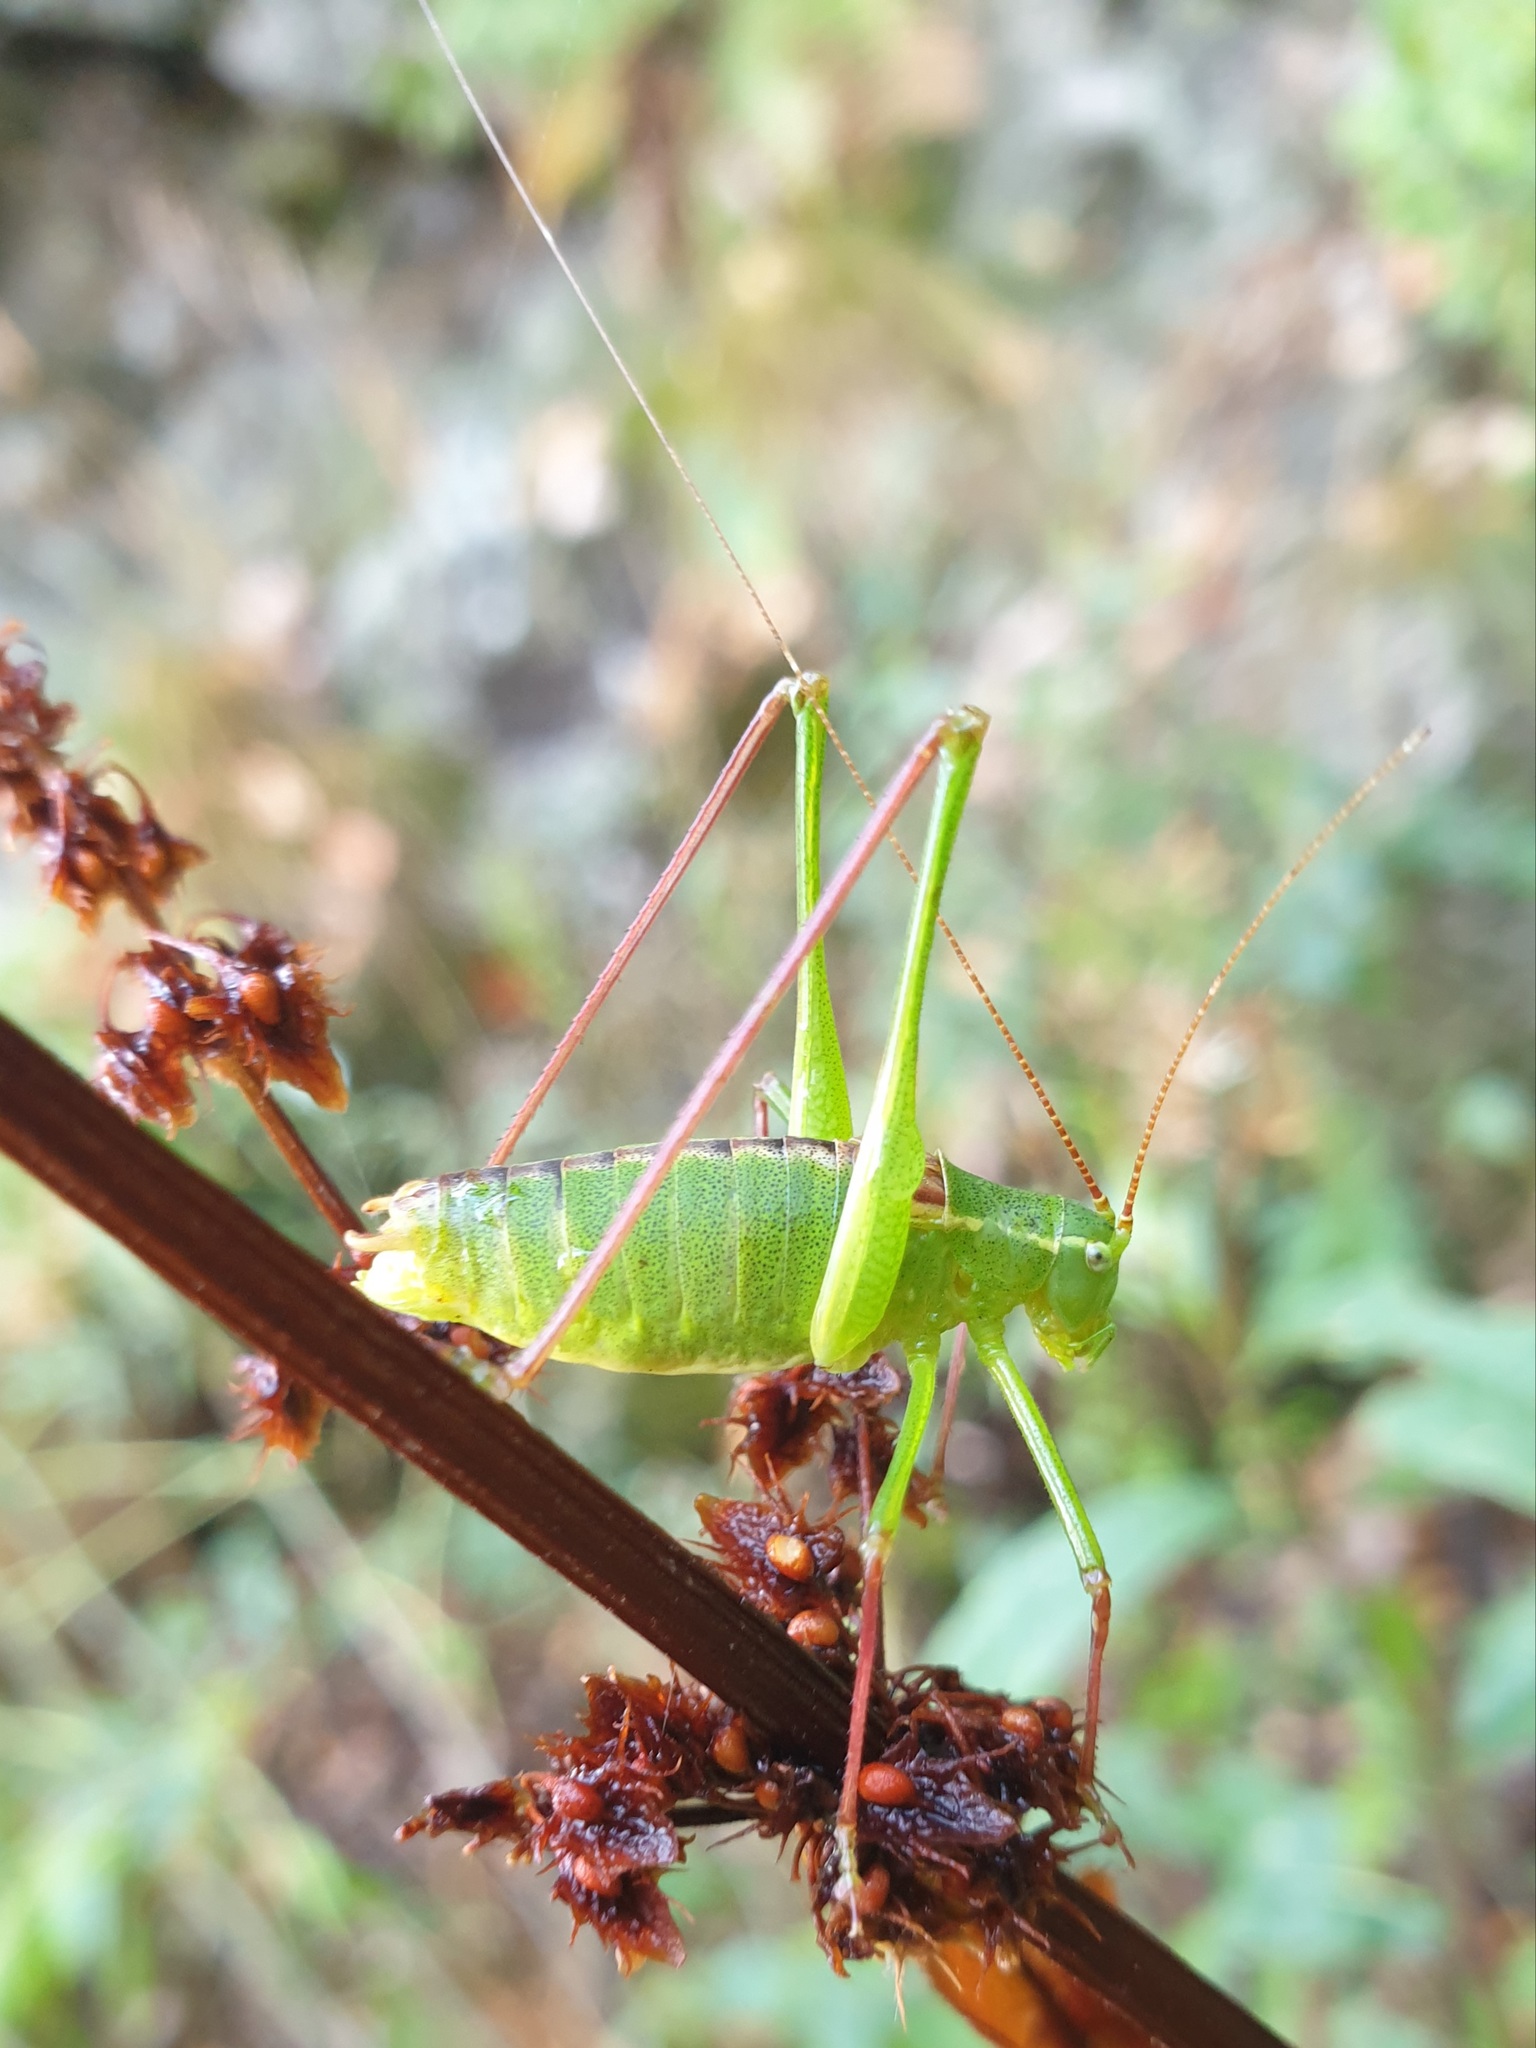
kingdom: Animalia
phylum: Arthropoda
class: Insecta
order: Orthoptera
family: Tettigoniidae
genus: Leptophyes
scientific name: Leptophyes laticauda
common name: Long-tailed speckled bush-cricket
